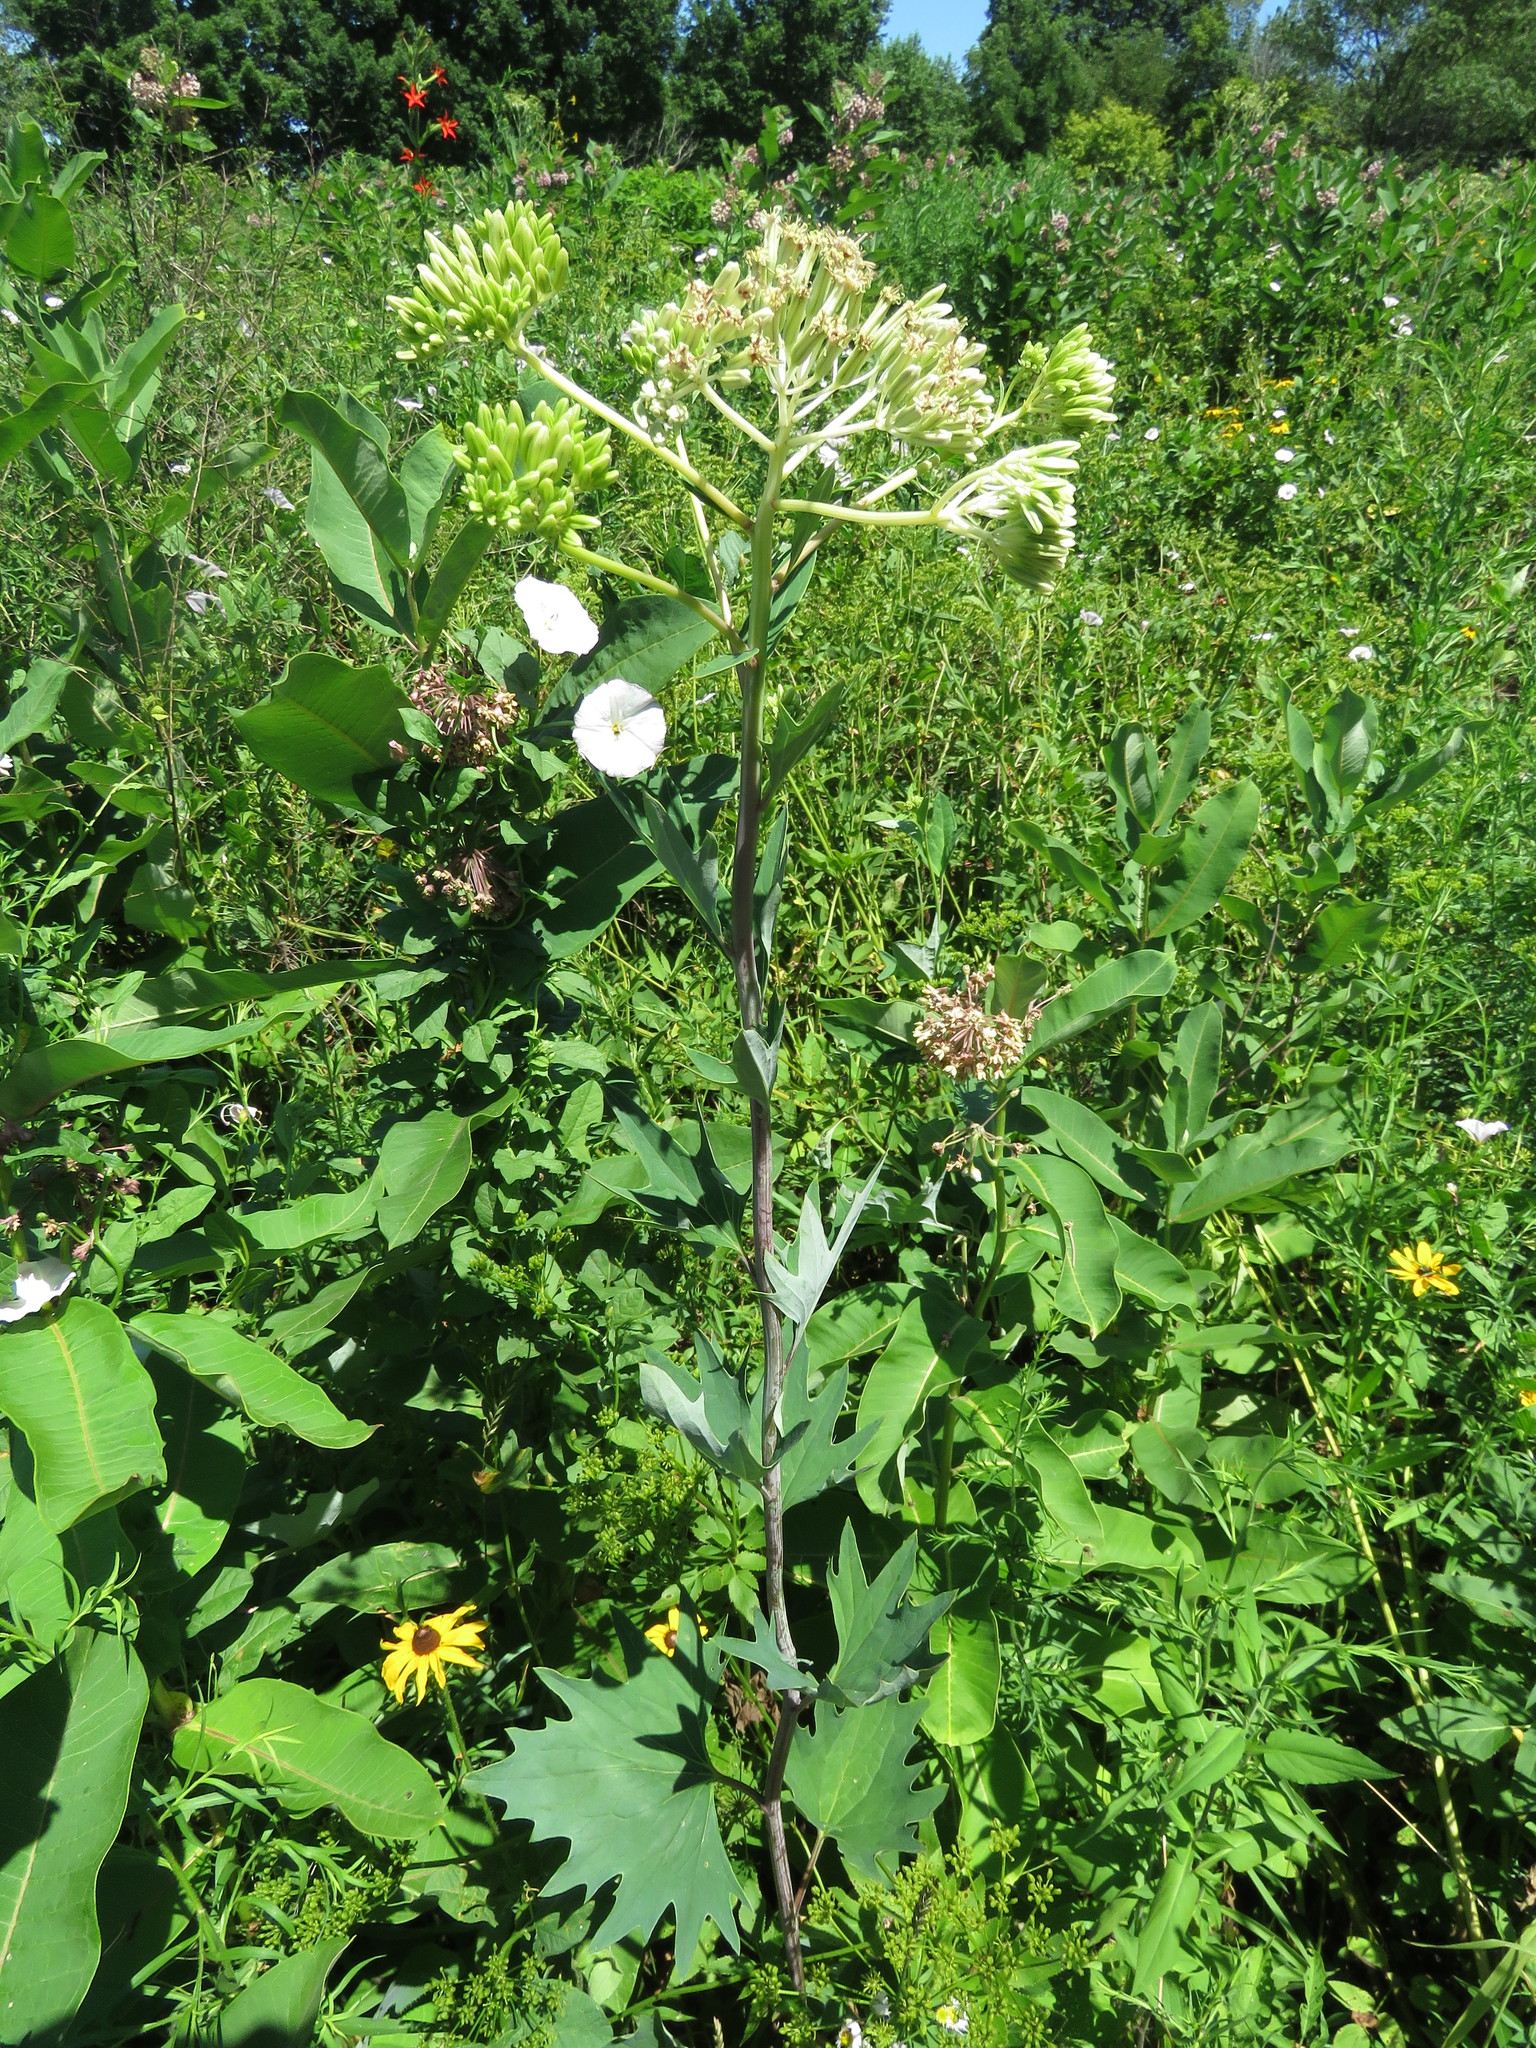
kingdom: Plantae
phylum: Tracheophyta
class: Magnoliopsida
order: Asterales
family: Asteraceae
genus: Arnoglossum
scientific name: Arnoglossum atriplicifolium
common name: Pale indian-plantain
